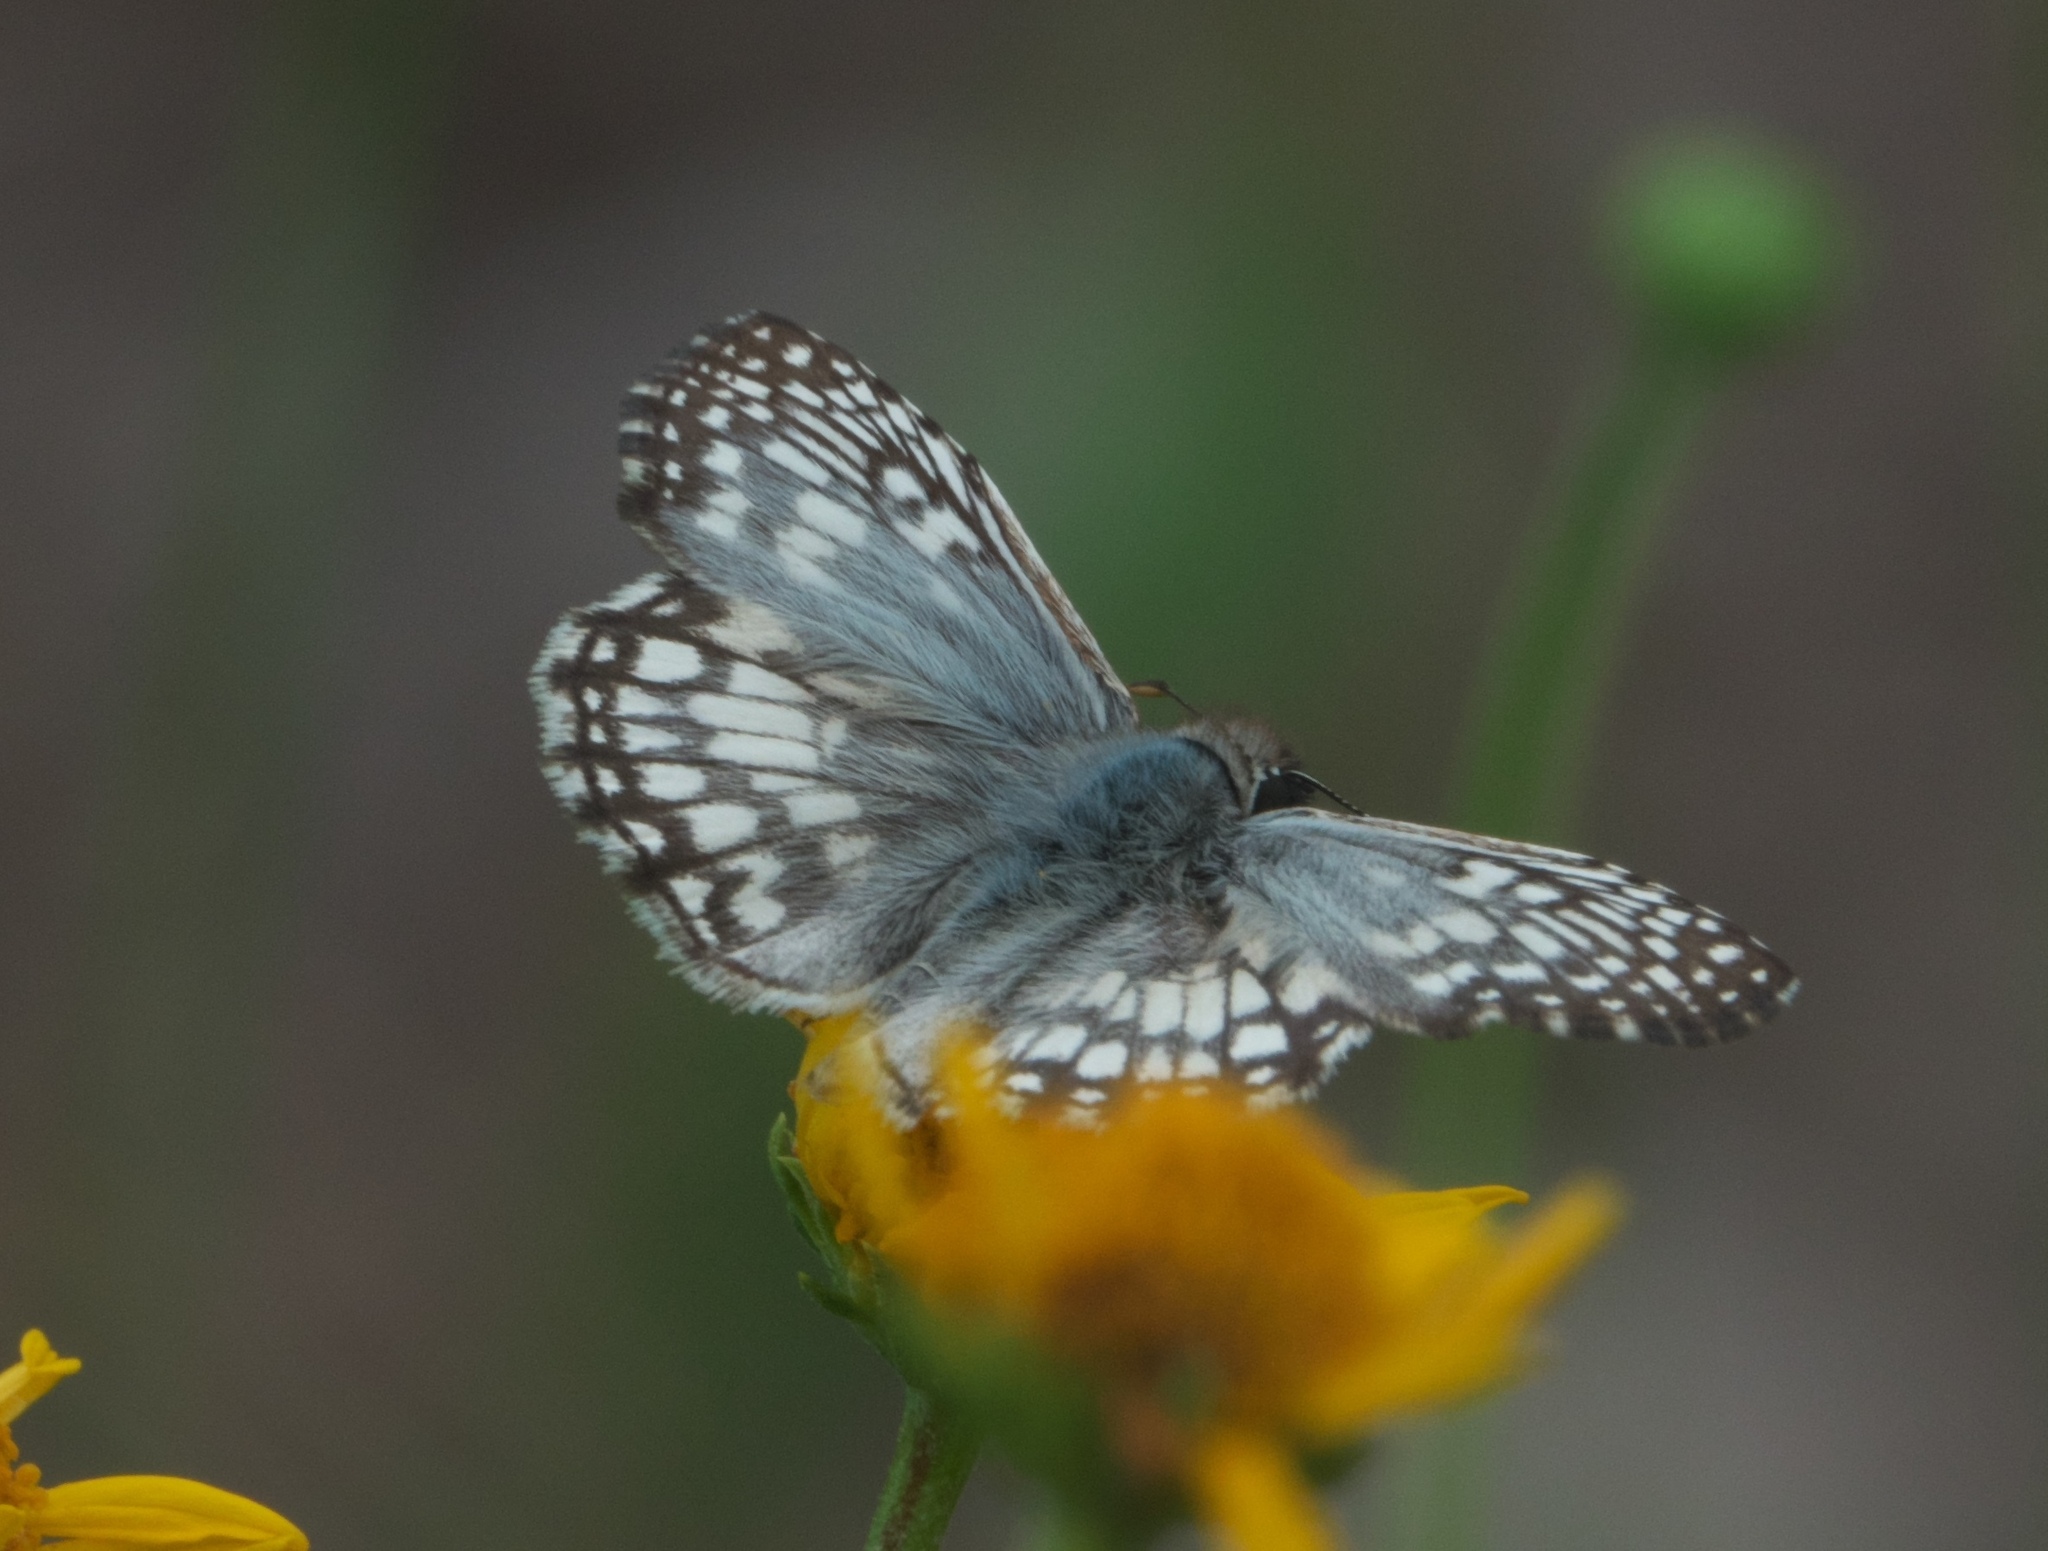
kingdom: Animalia
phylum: Arthropoda
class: Insecta
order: Lepidoptera
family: Hesperiidae
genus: Pyrgus
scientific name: Pyrgus oileus
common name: Tropical checkered-skipper
